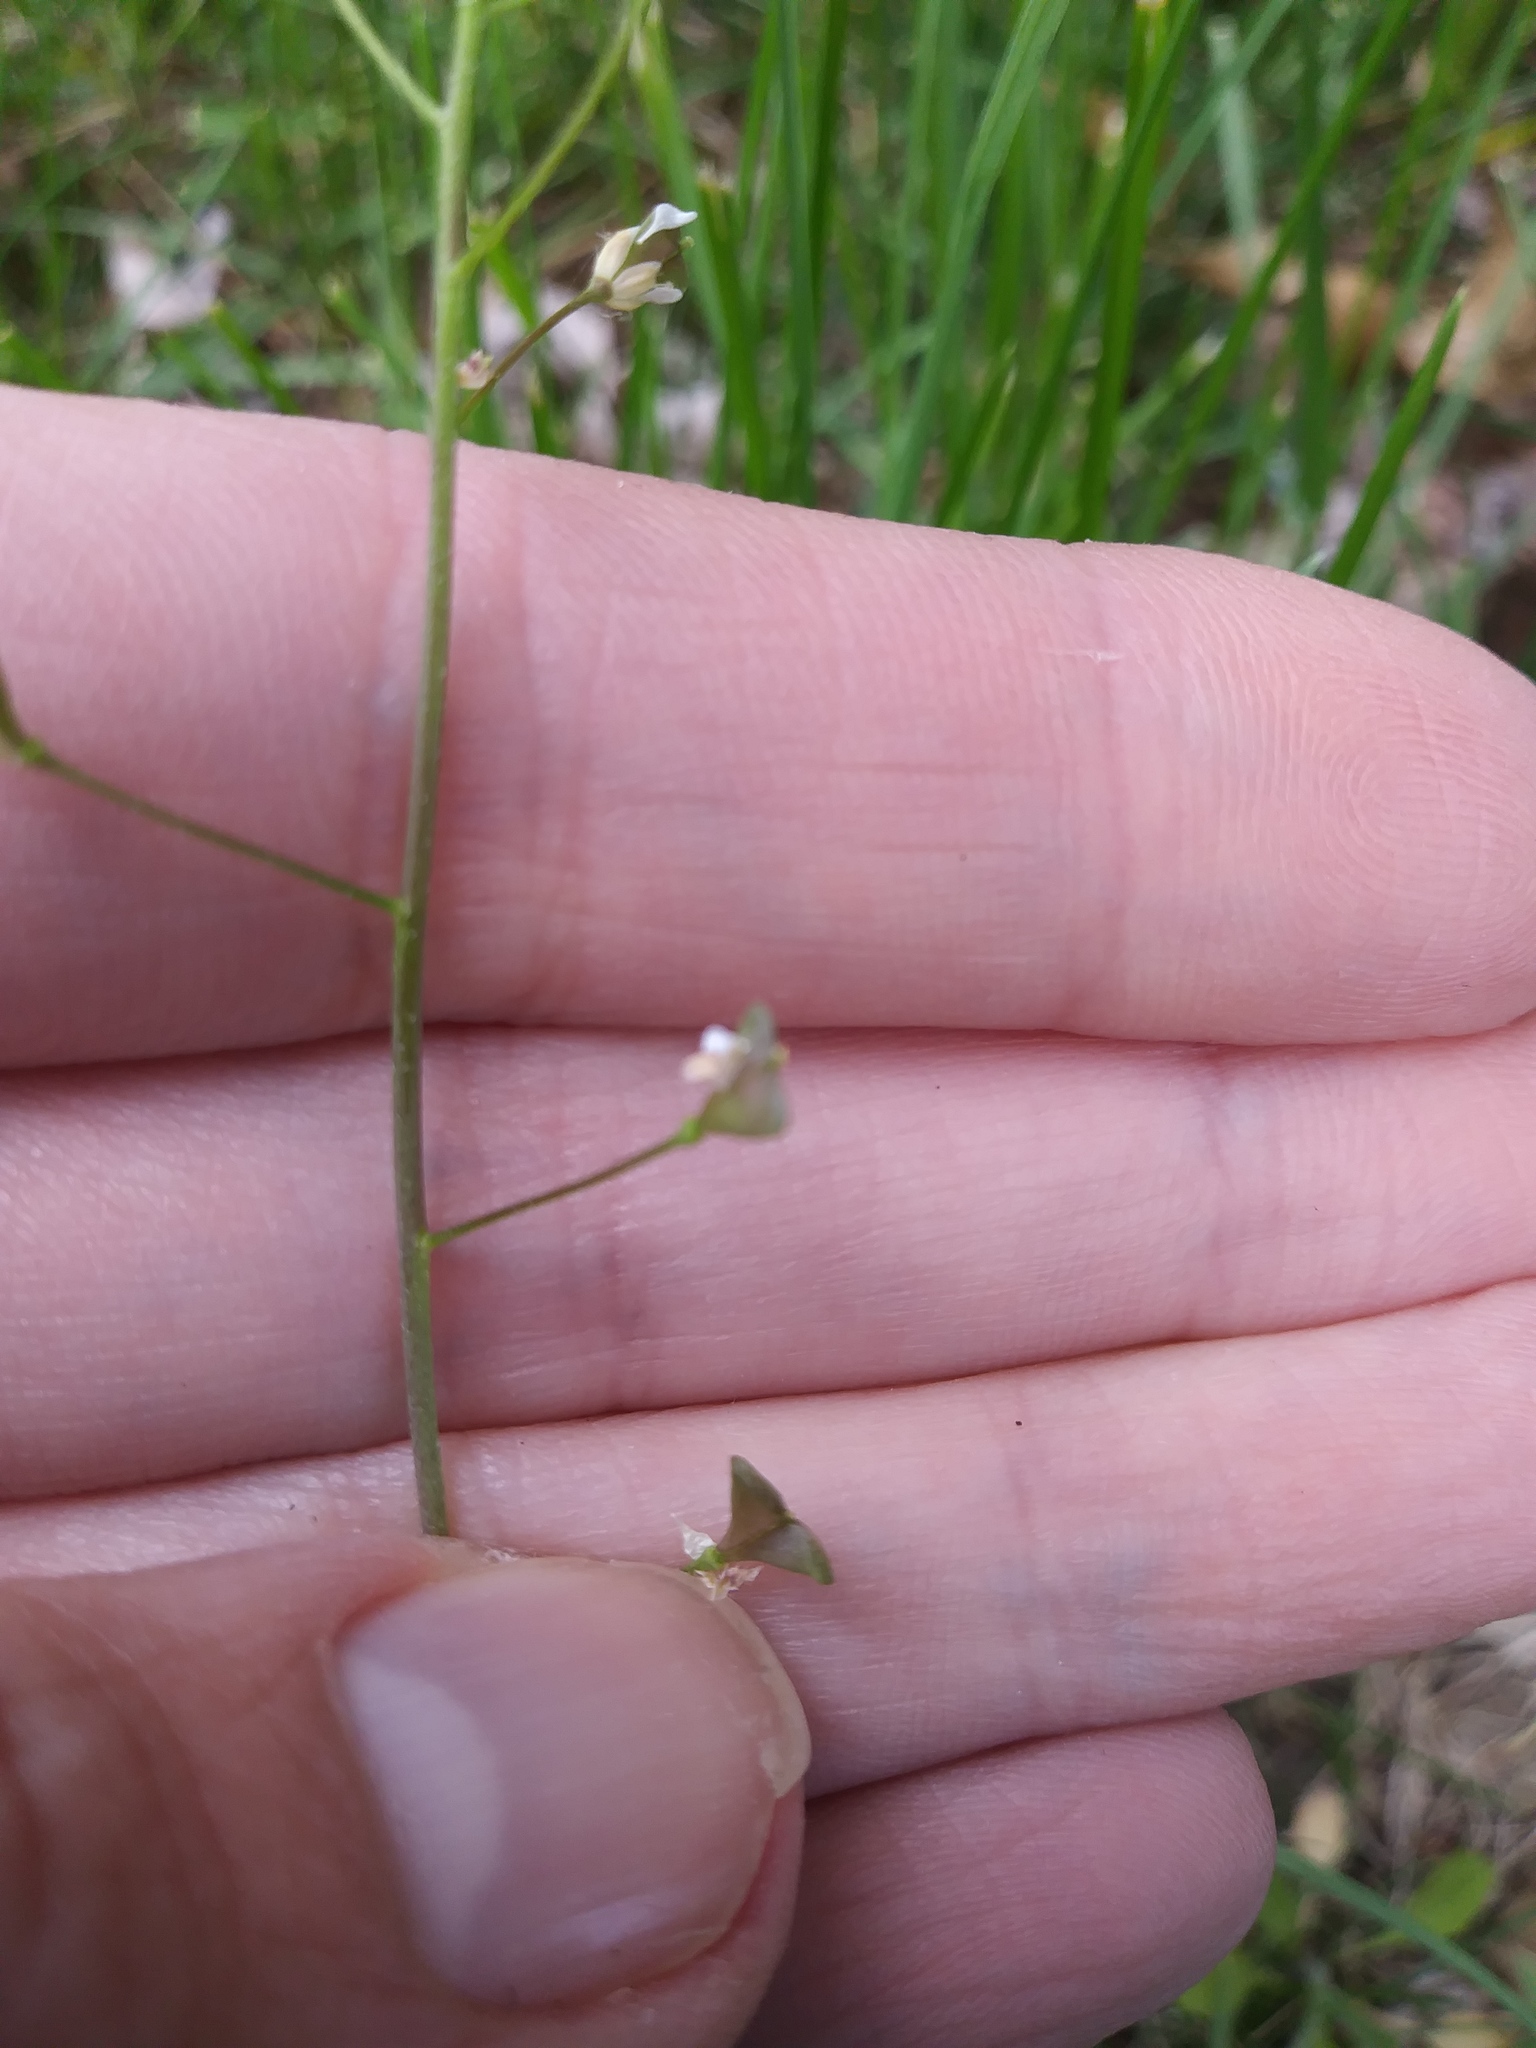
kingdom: Plantae
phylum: Tracheophyta
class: Magnoliopsida
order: Brassicales
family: Brassicaceae
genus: Capsella
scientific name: Capsella bursa-pastoris
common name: Shepherd's purse
